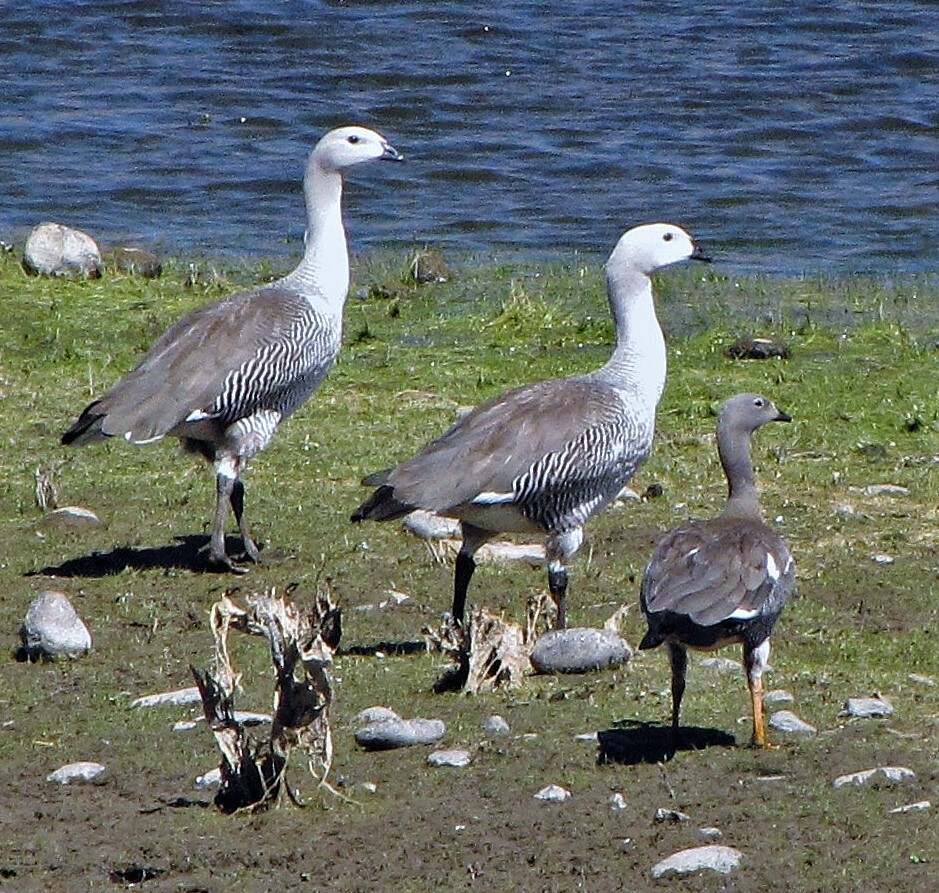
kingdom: Animalia
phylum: Chordata
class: Aves
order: Anseriformes
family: Anatidae
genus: Chloephaga
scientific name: Chloephaga picta
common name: Upland goose
